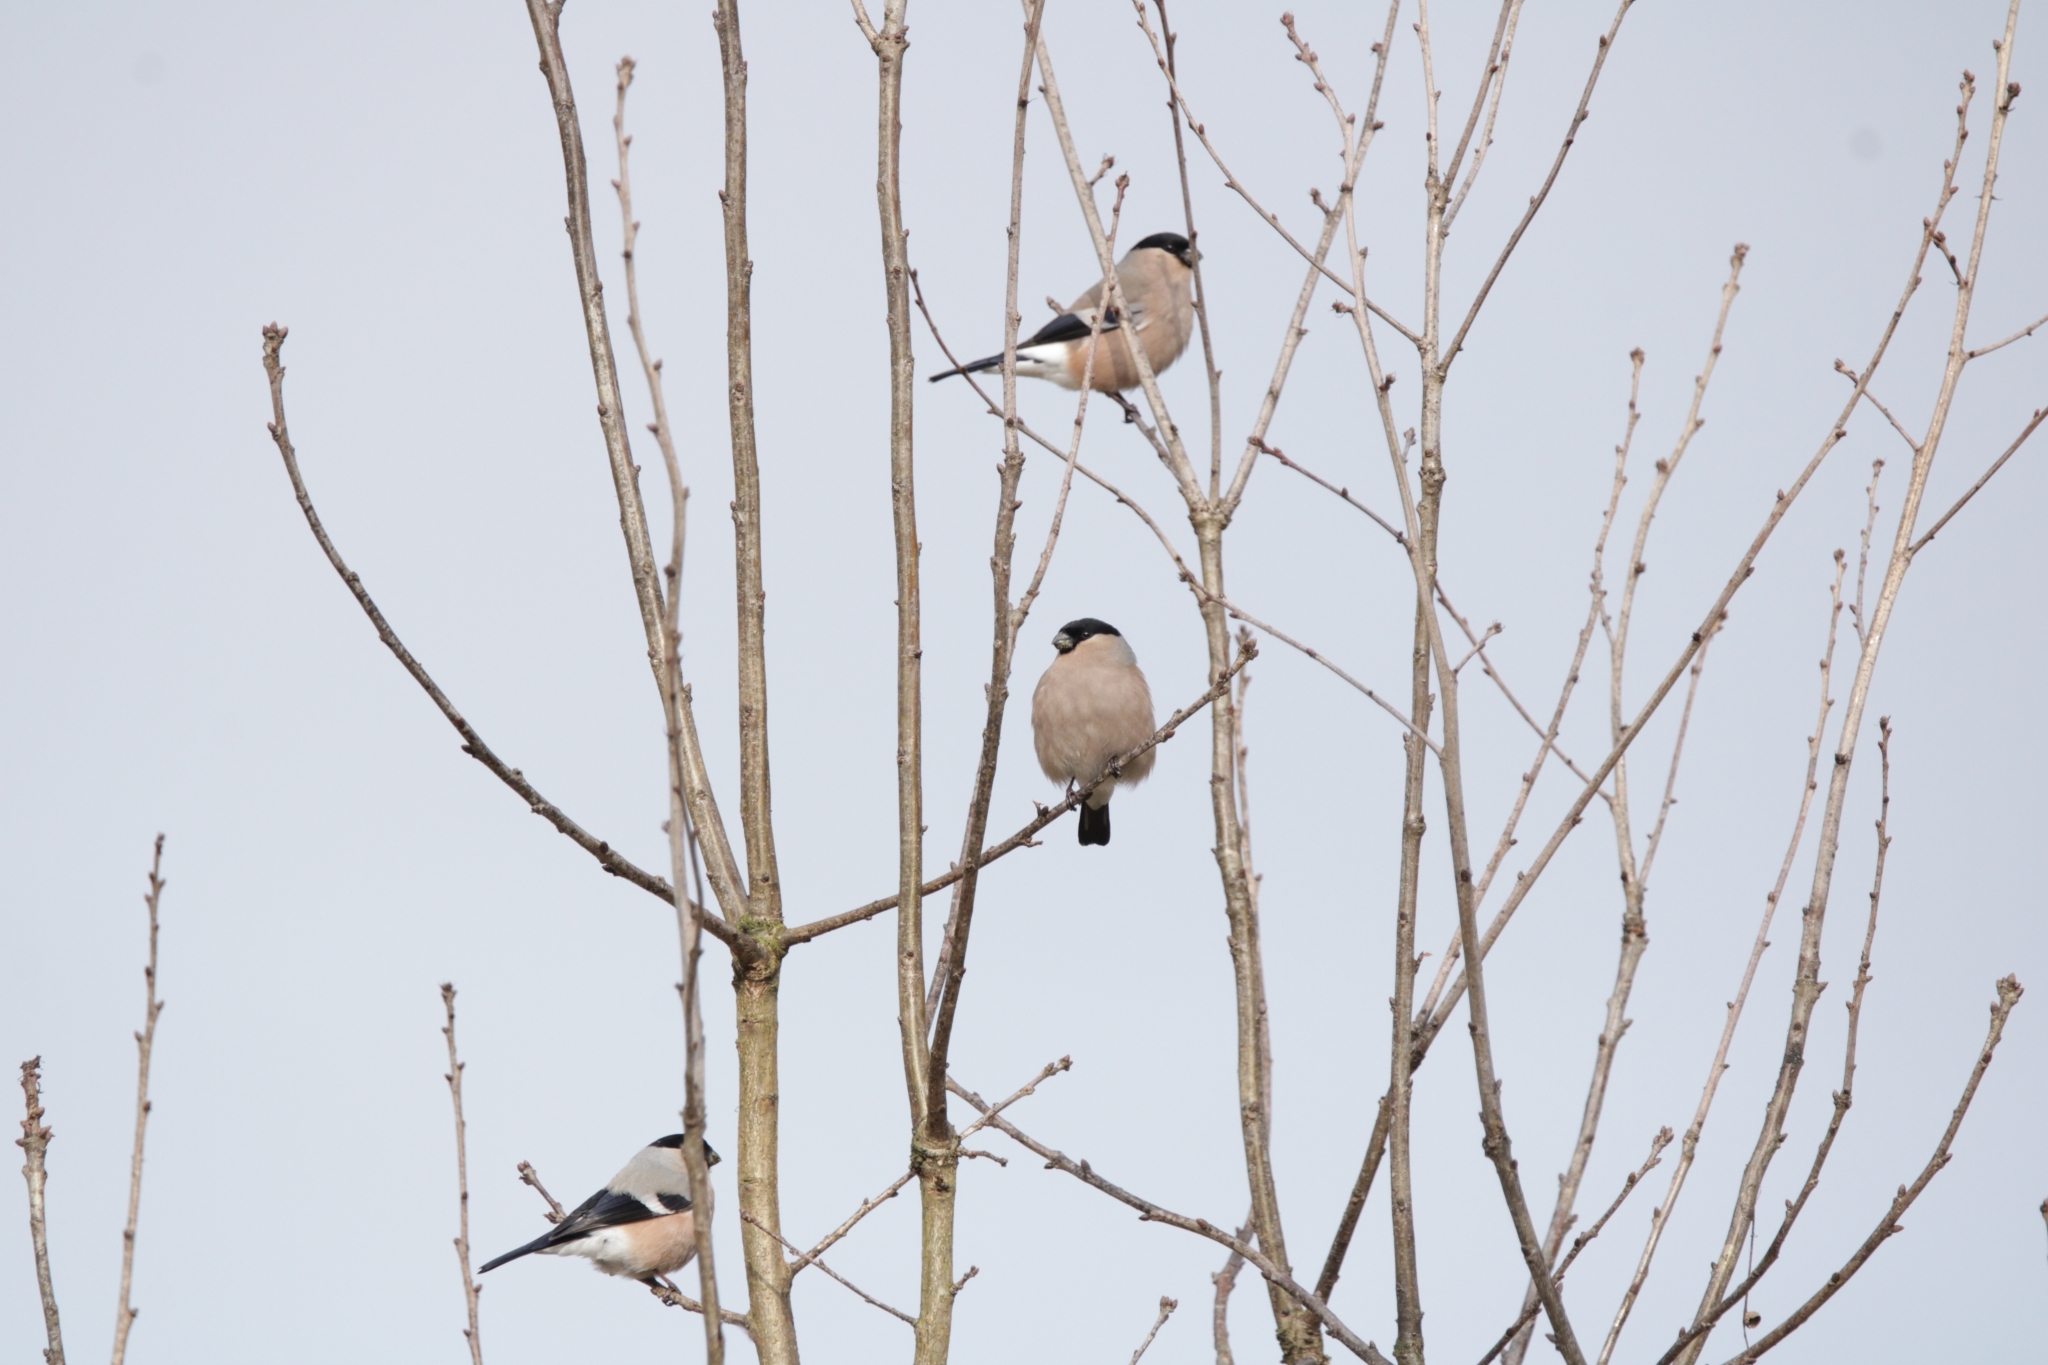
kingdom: Animalia
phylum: Chordata
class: Aves
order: Passeriformes
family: Fringillidae
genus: Pyrrhula
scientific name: Pyrrhula pyrrhula
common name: Eurasian bullfinch
